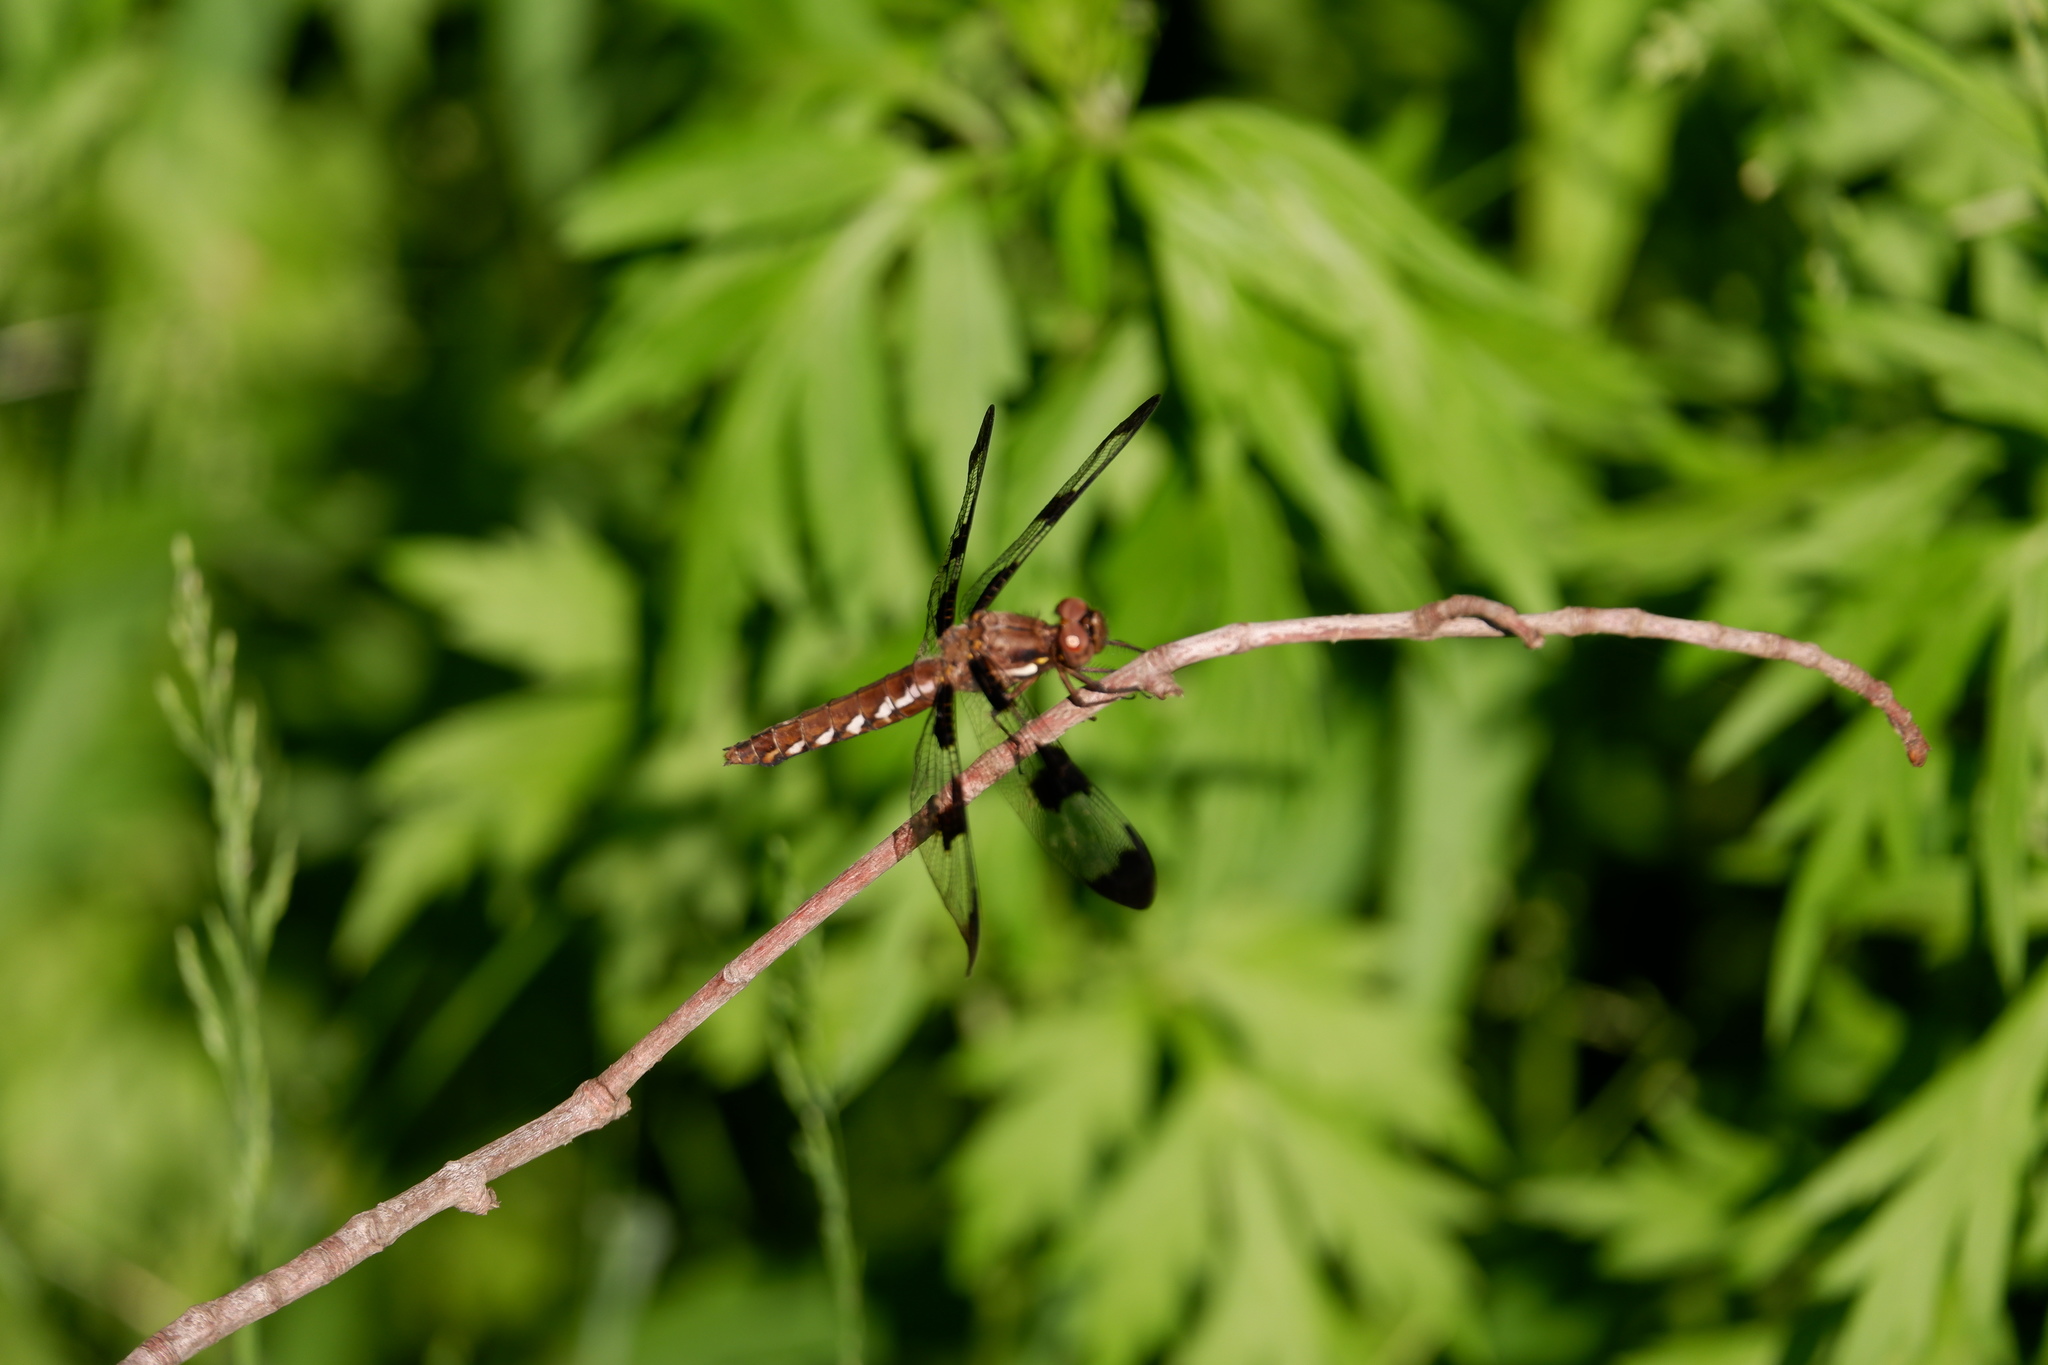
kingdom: Animalia
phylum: Arthropoda
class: Insecta
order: Odonata
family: Libellulidae
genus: Plathemis
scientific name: Plathemis lydia
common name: Common whitetail
